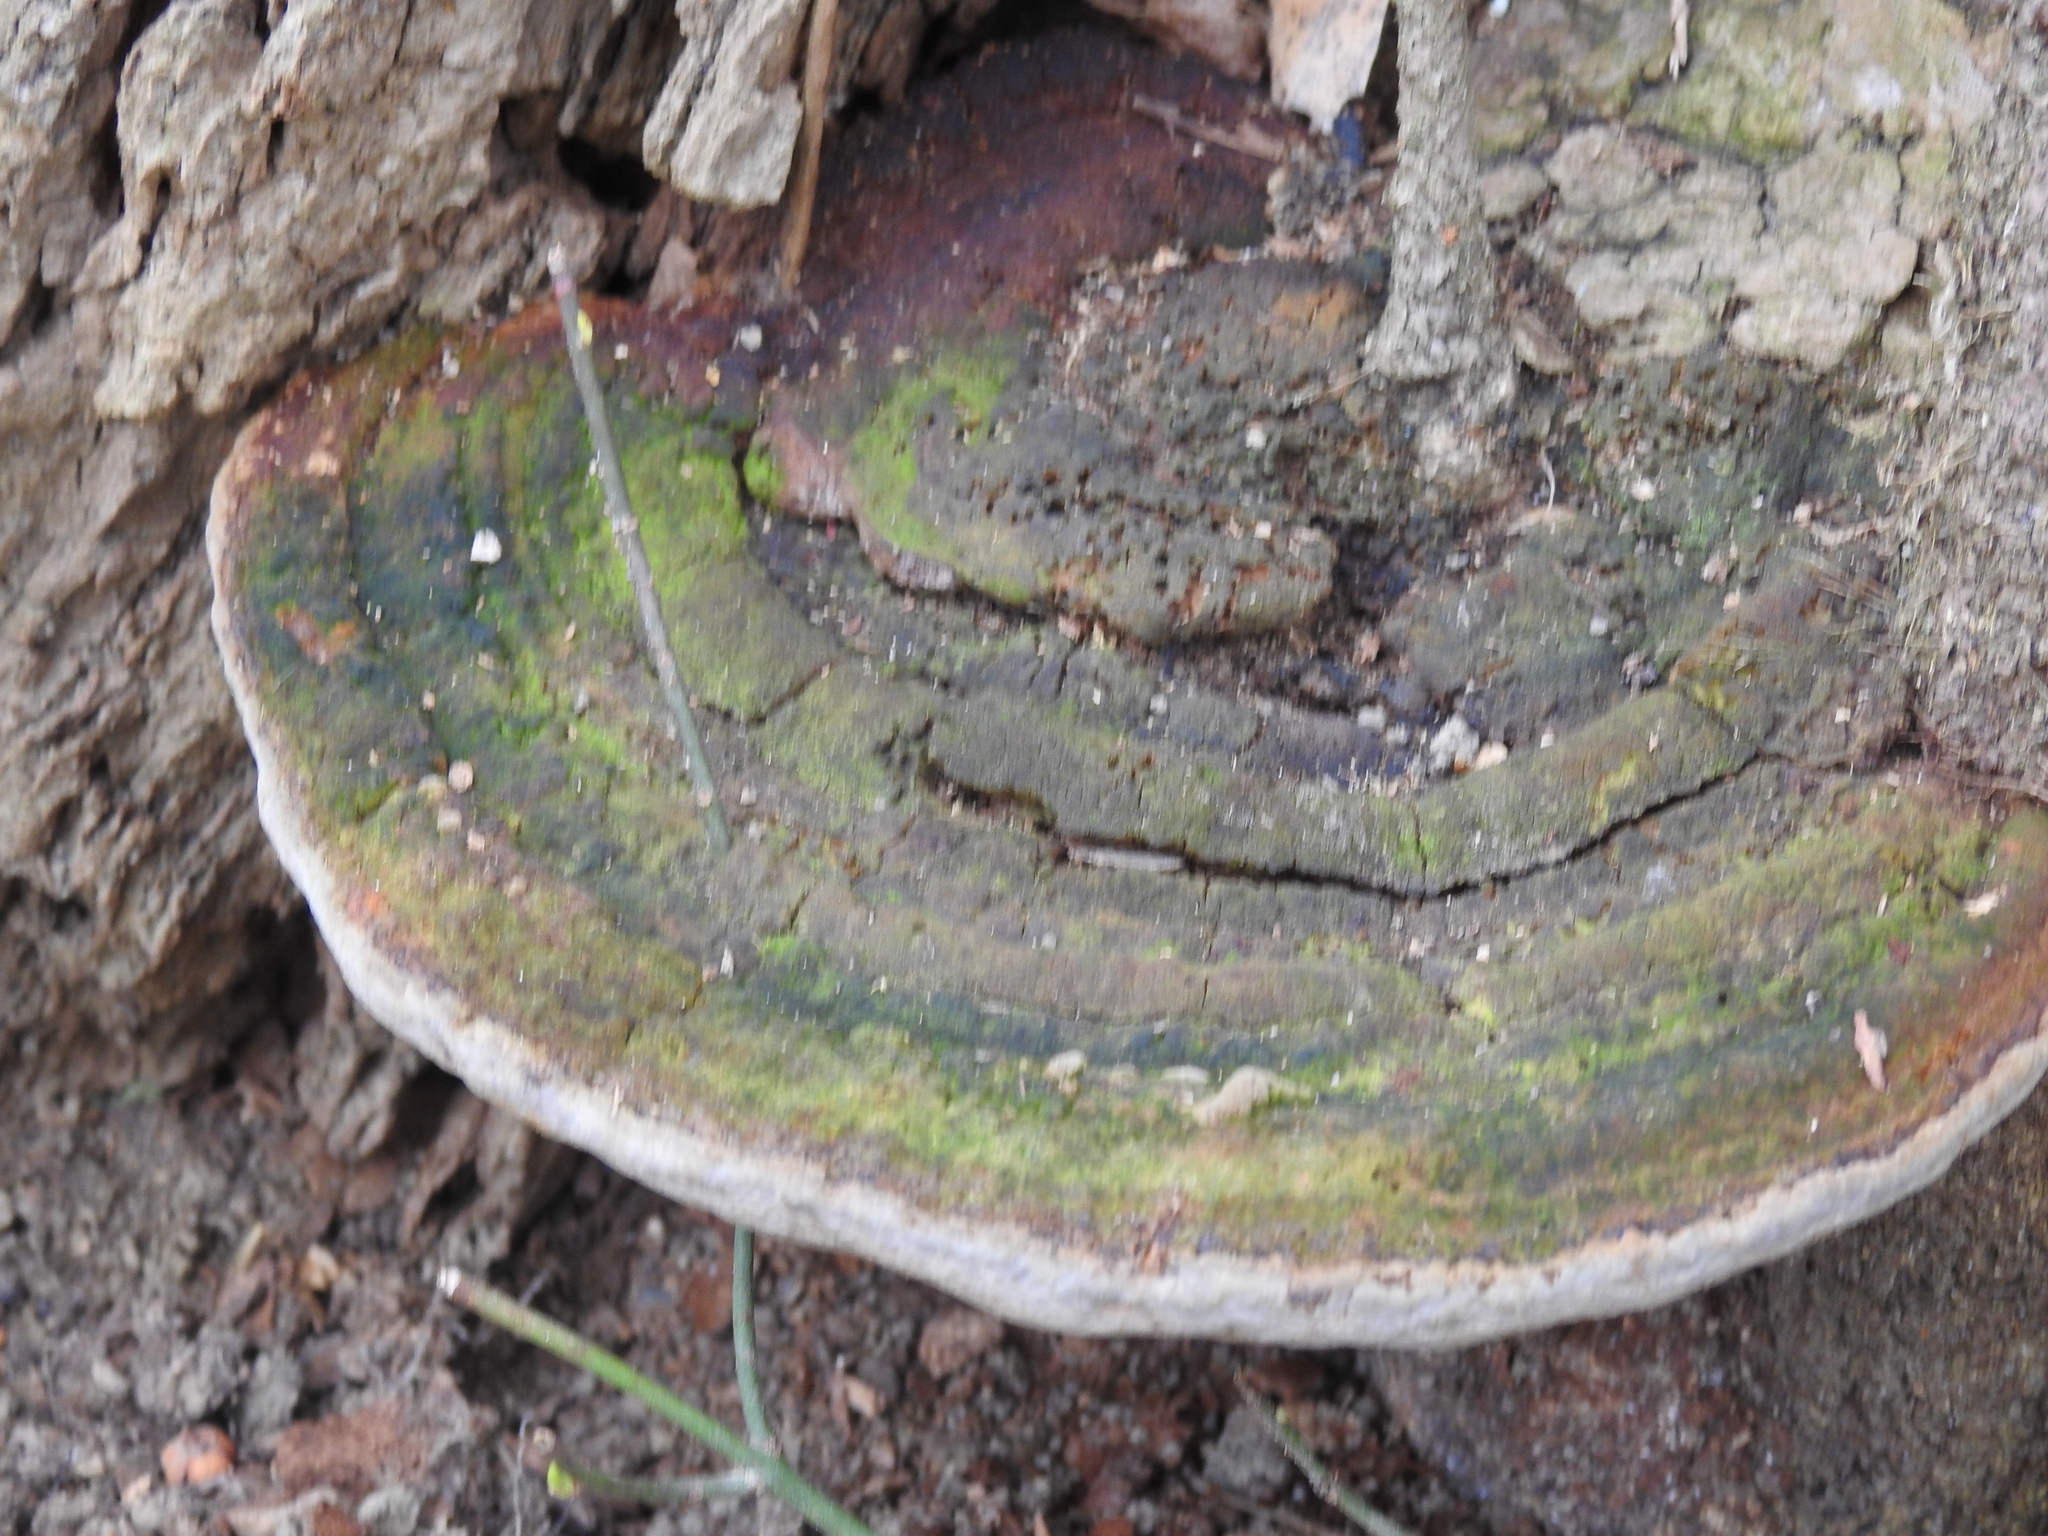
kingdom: Fungi
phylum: Basidiomycota
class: Agaricomycetes
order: Hymenochaetales
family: Hymenochaetaceae
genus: Phellinus
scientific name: Phellinus robiniae
